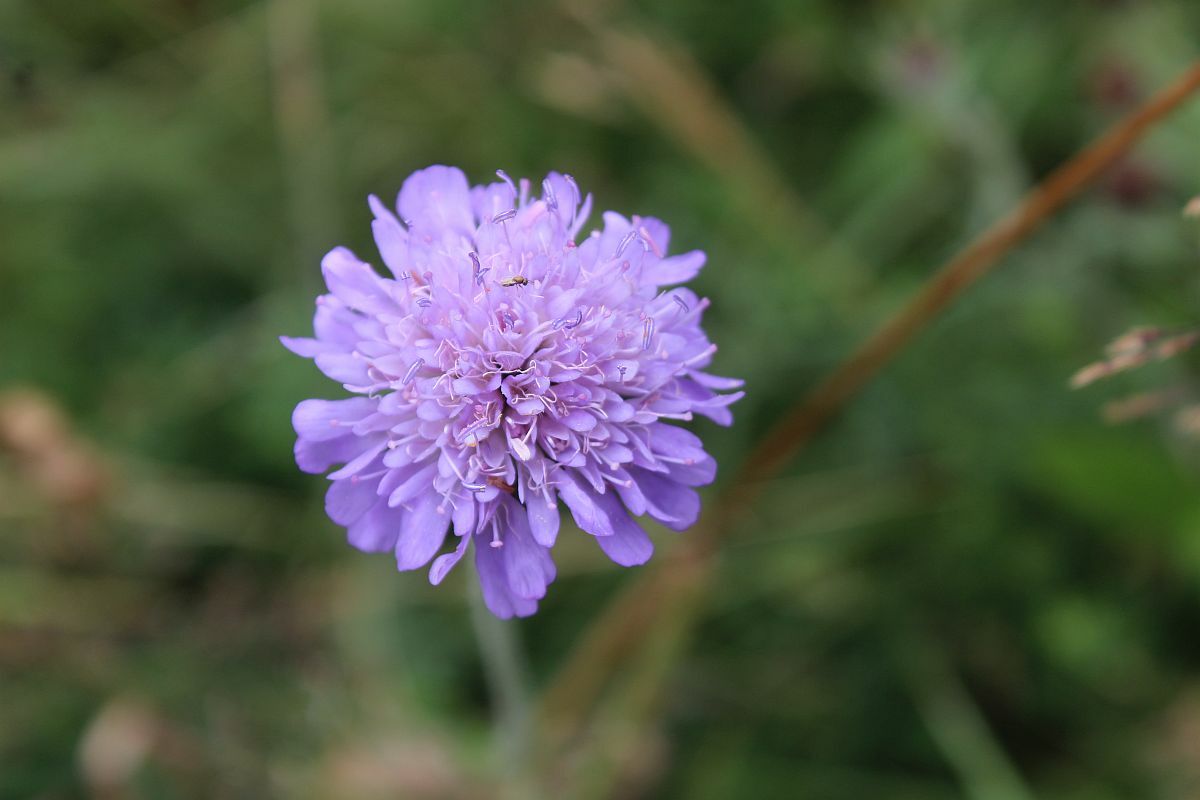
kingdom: Plantae
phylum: Tracheophyta
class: Magnoliopsida
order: Dipsacales
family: Caprifoliaceae
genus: Knautia
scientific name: Knautia arvensis
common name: Field scabiosa
